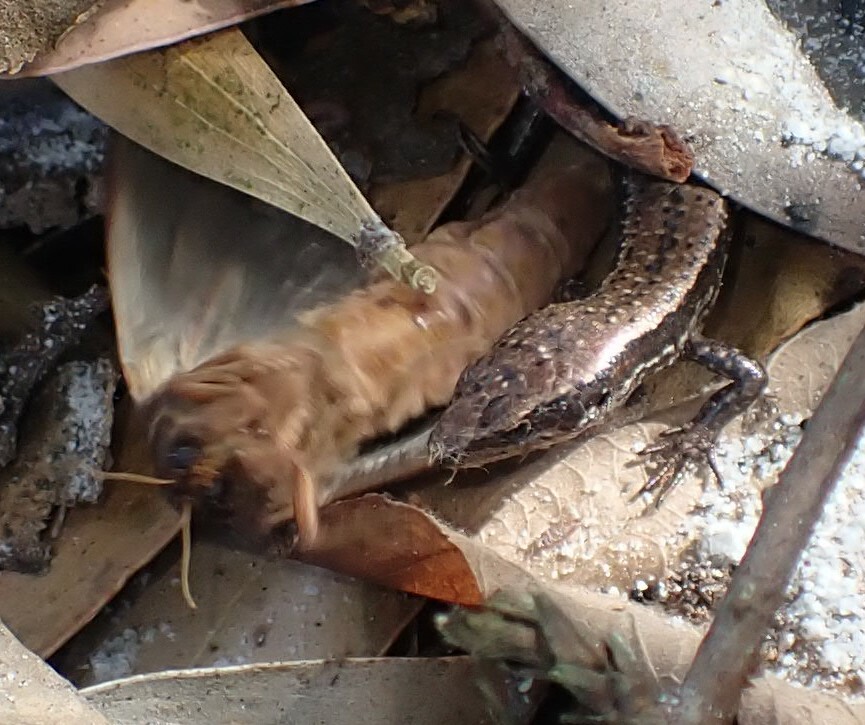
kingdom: Animalia
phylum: Chordata
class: Squamata
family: Scincidae
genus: Carinascincus
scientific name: Carinascincus pretiosus
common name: Agile cool-skink
